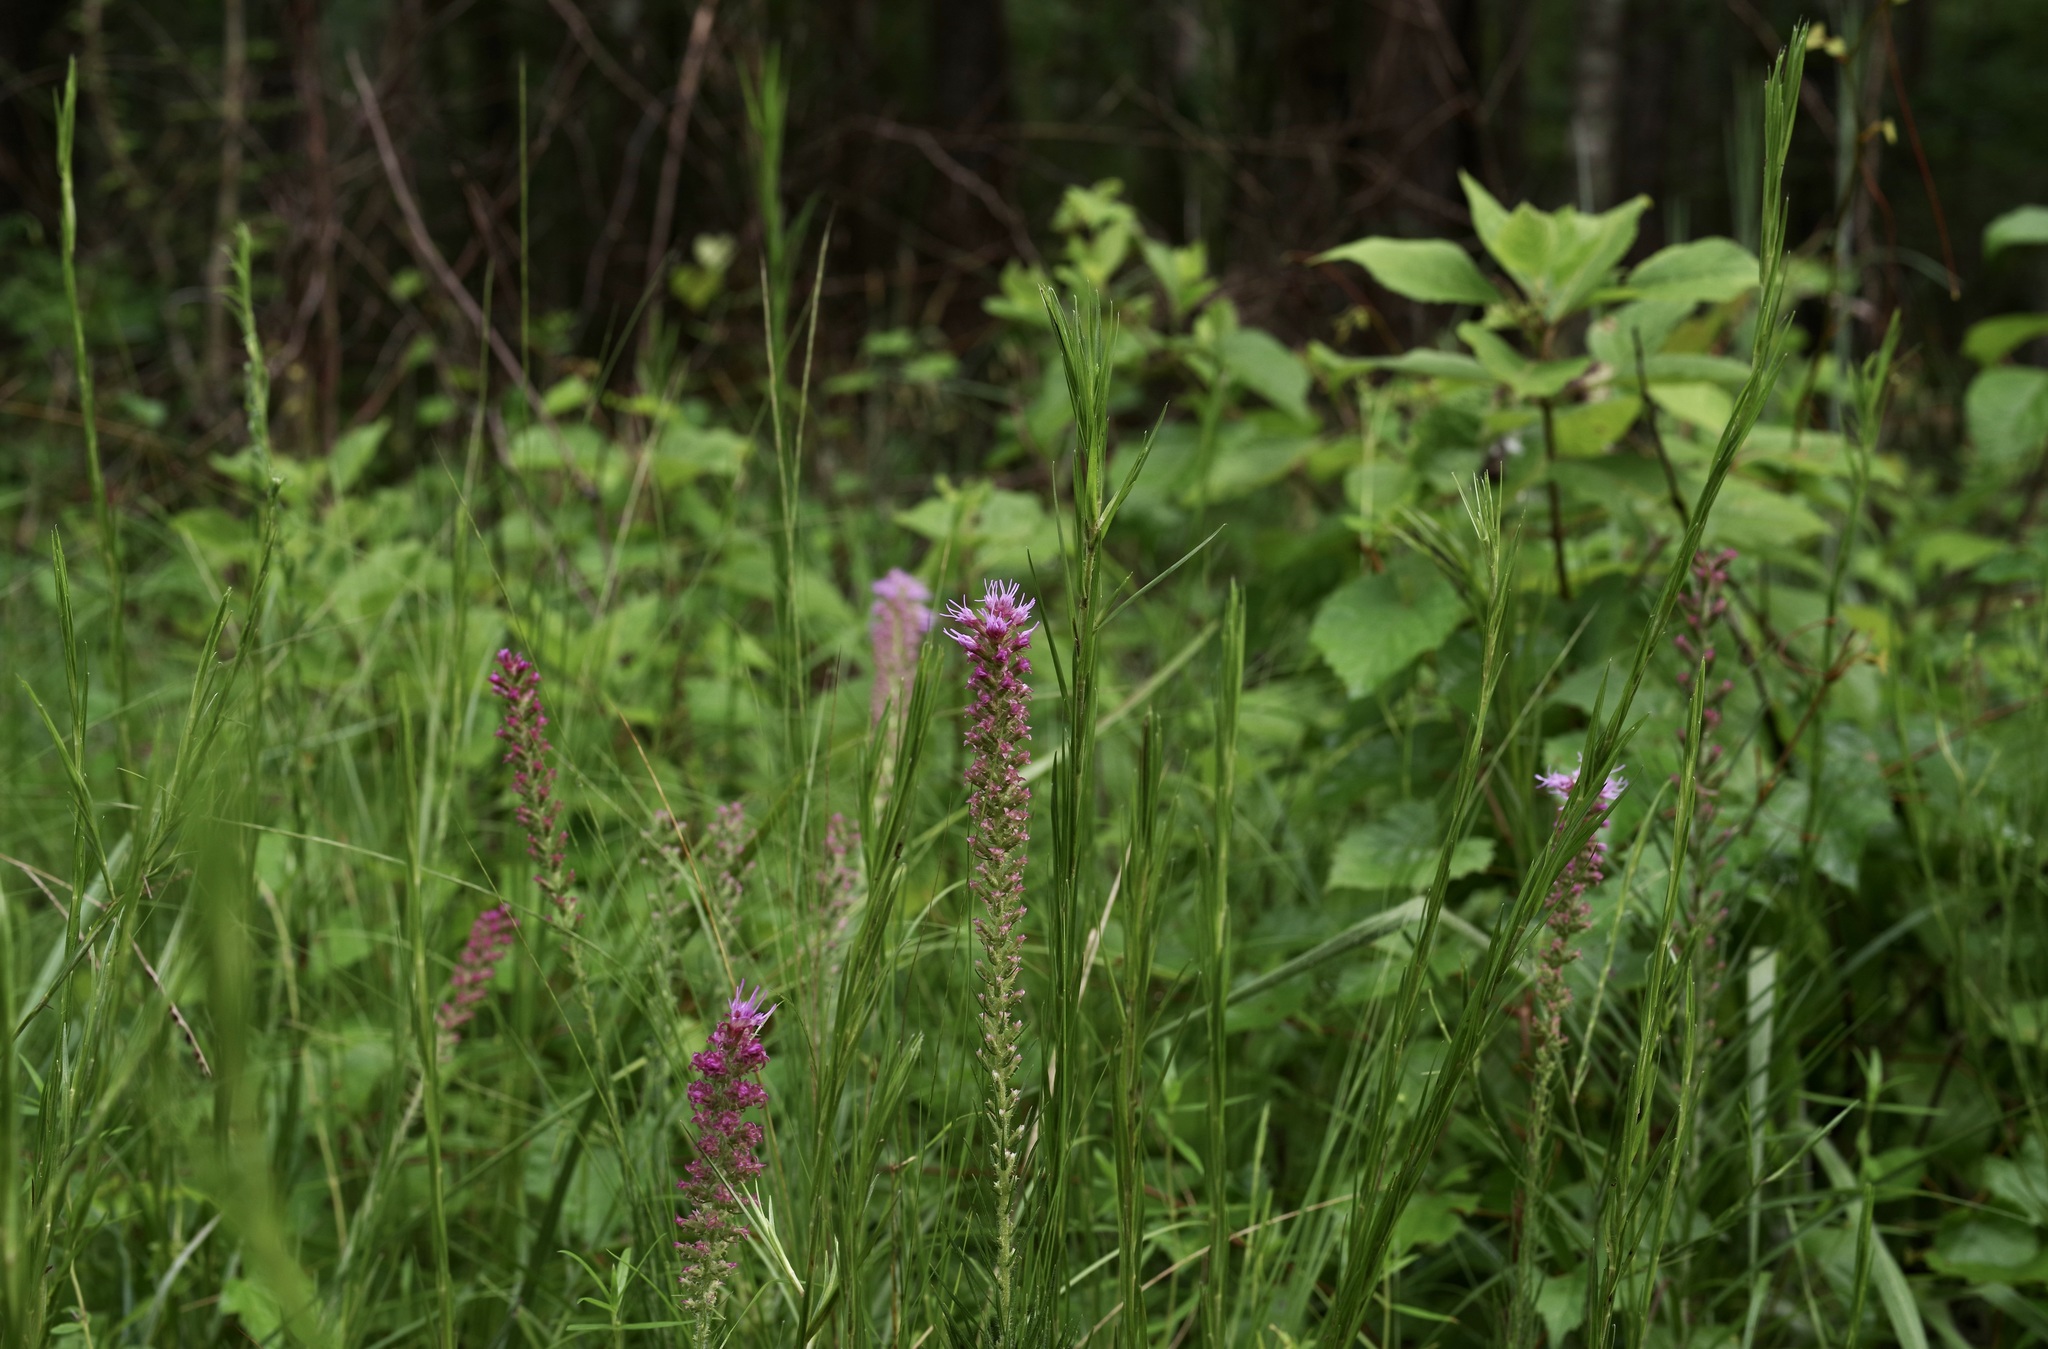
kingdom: Plantae
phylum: Tracheophyta
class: Magnoliopsida
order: Asterales
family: Asteraceae
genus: Liatris
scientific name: Liatris pycnostachya
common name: Cattail gayfeather
